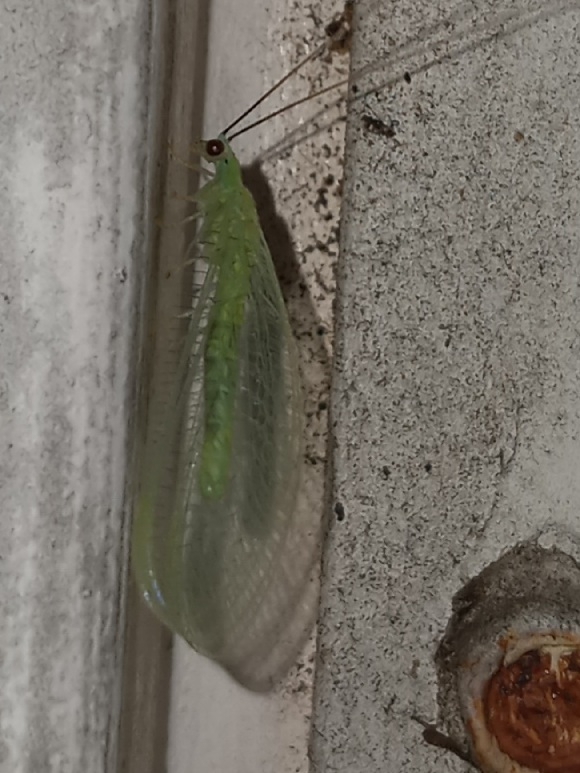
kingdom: Animalia
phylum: Arthropoda
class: Insecta
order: Neuroptera
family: Chrysopidae
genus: Chrysopa
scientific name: Chrysopa nigricornis
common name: Black-horned green lacewing
